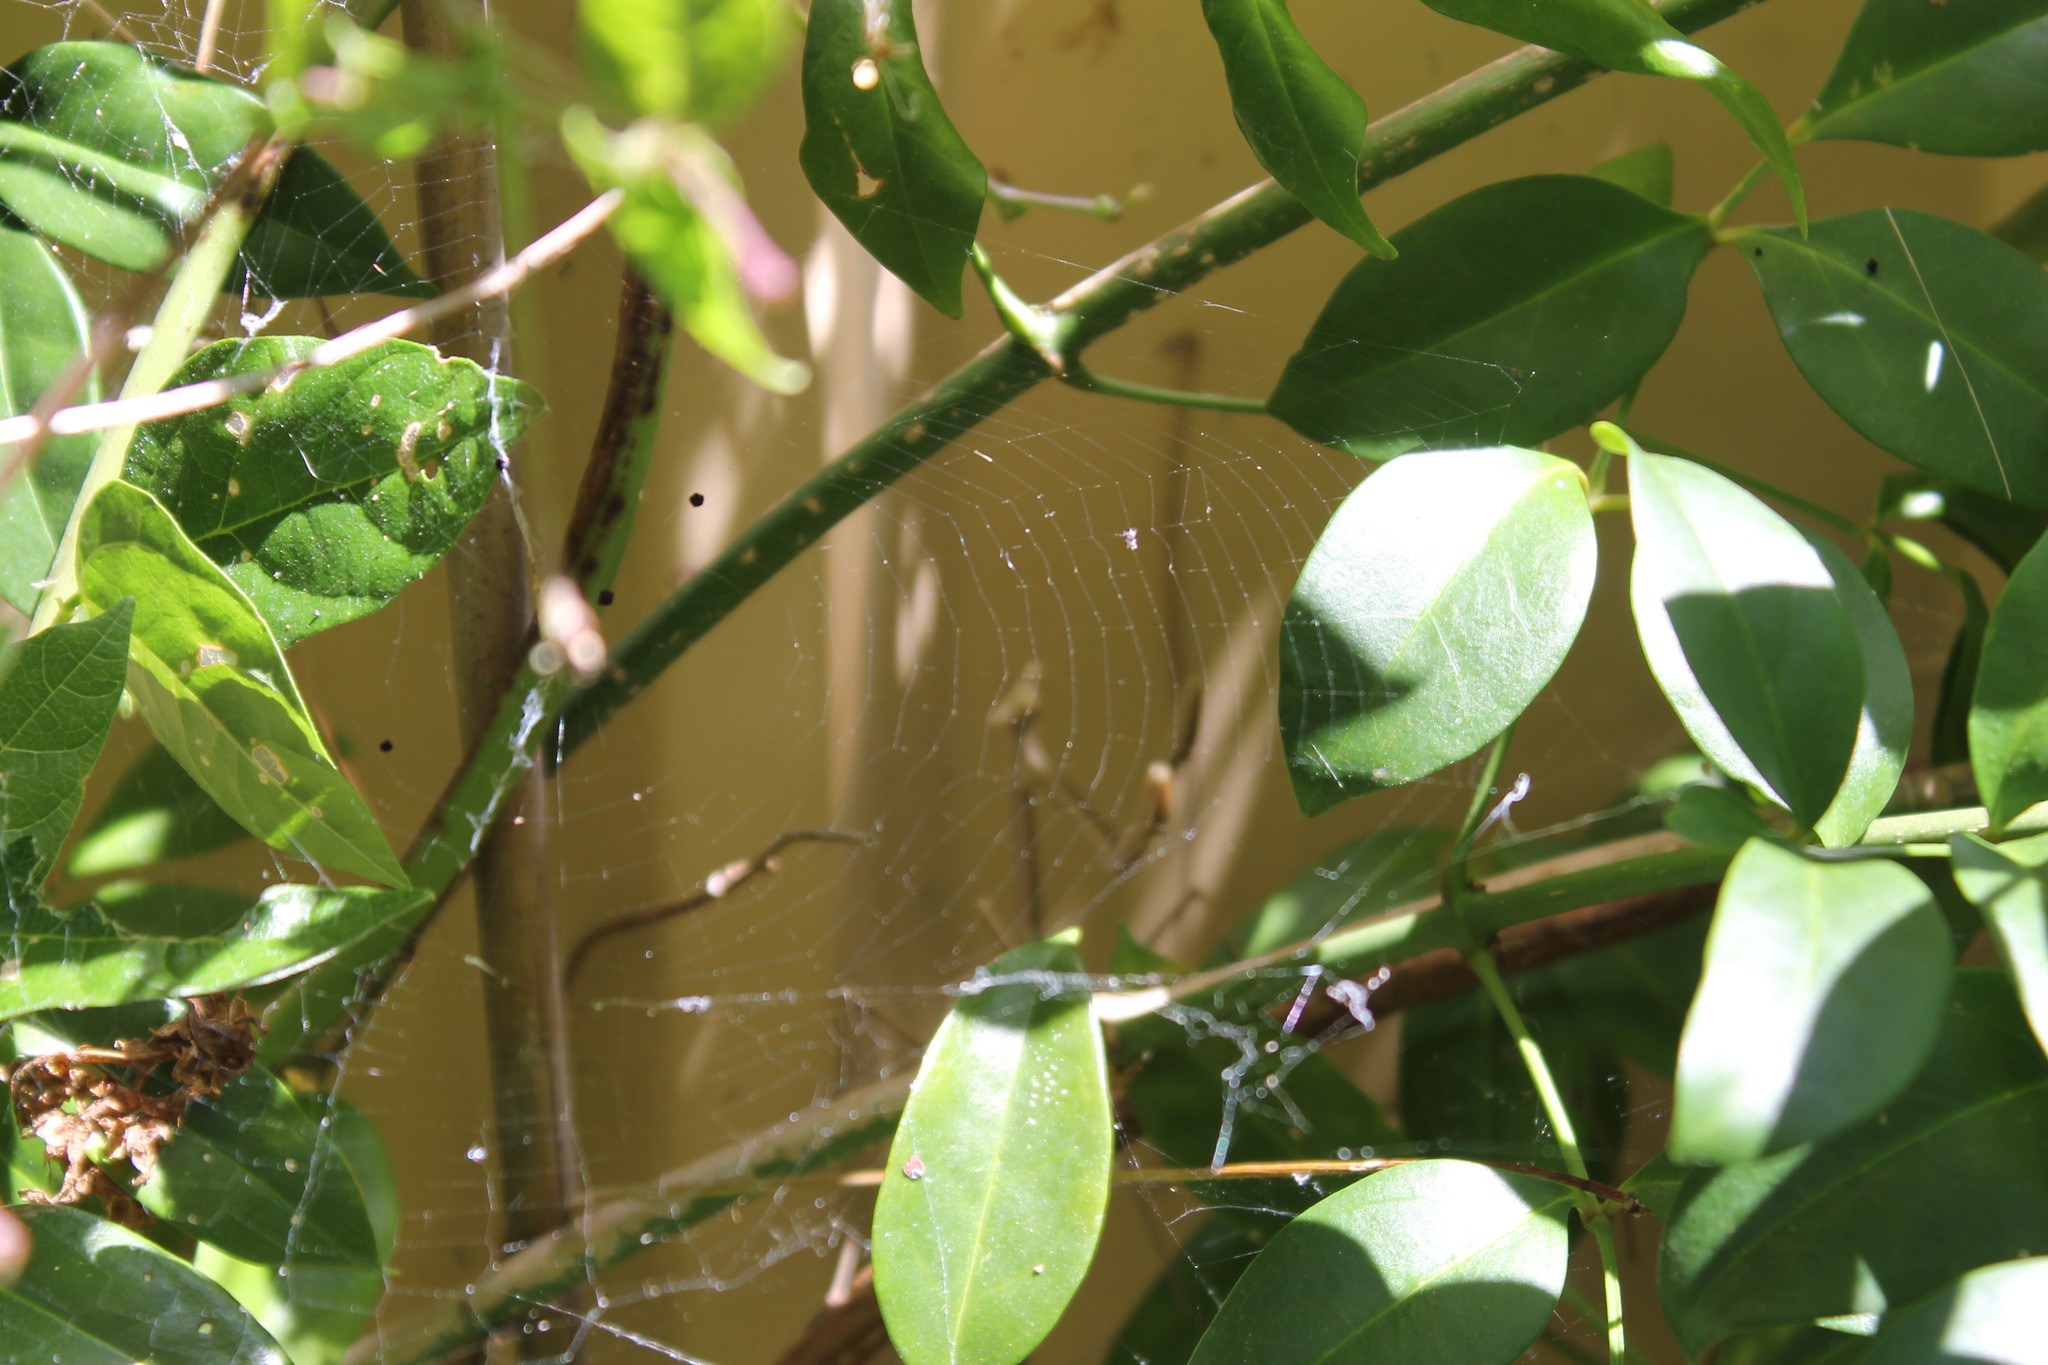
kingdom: Animalia
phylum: Arthropoda
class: Insecta
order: Mantodea
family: Mantidae
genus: Archimantis
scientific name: Archimantis sobrina
